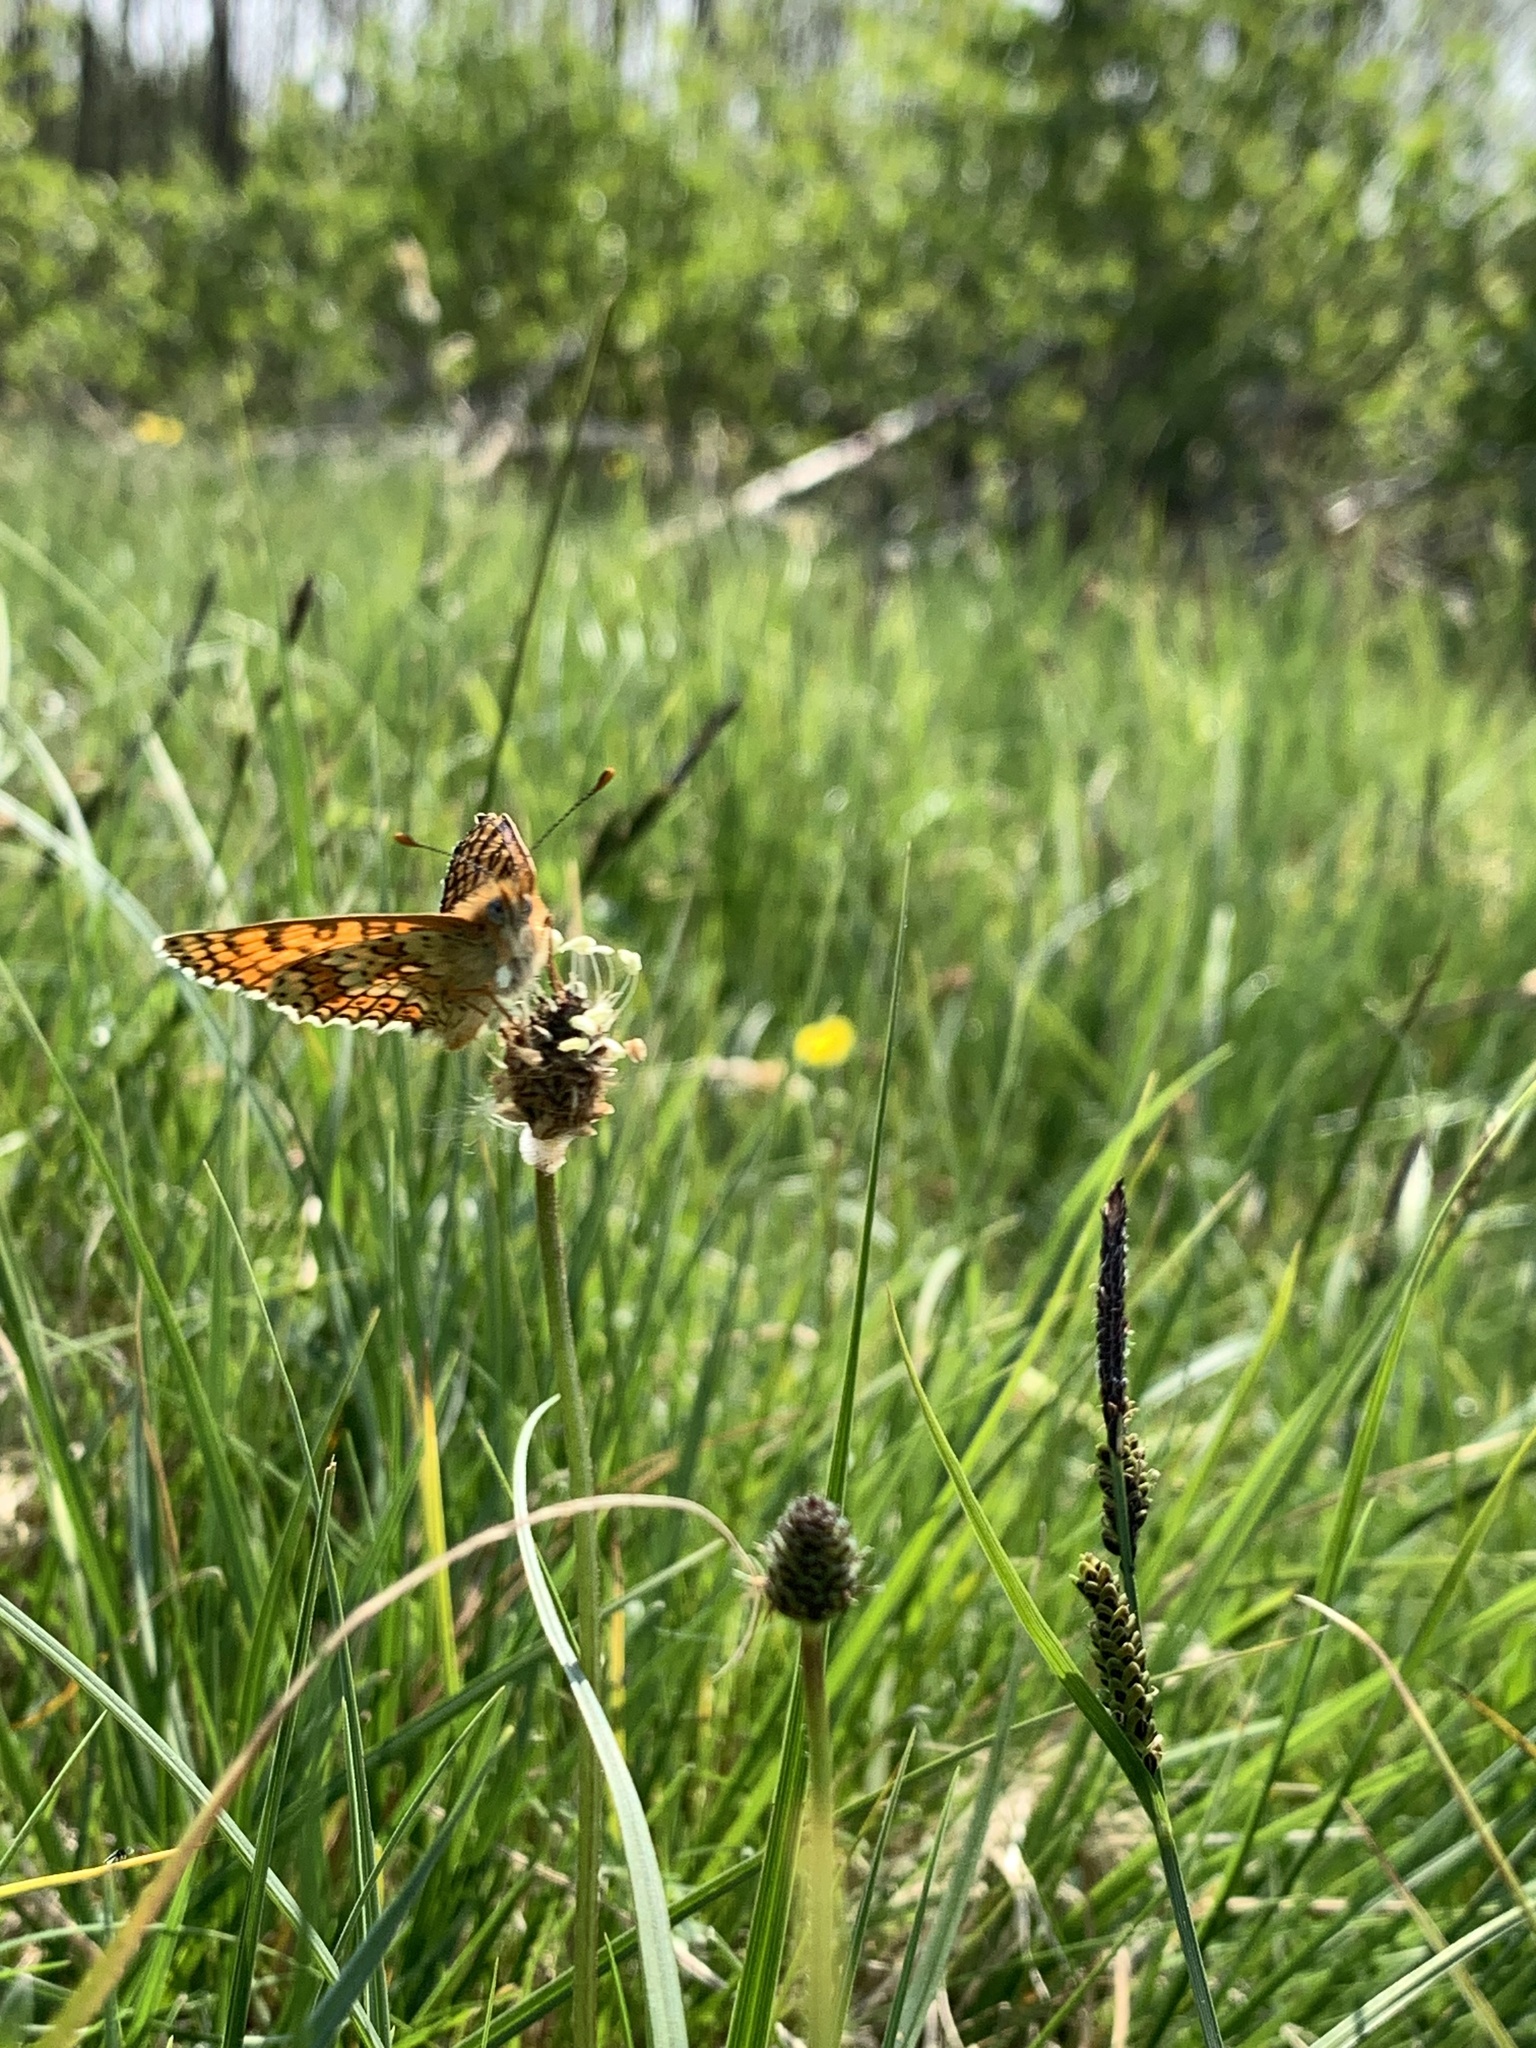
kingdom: Animalia
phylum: Arthropoda
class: Insecta
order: Lepidoptera
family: Nymphalidae
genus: Melitaea
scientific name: Melitaea cinxia
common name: Glanville fritillary
